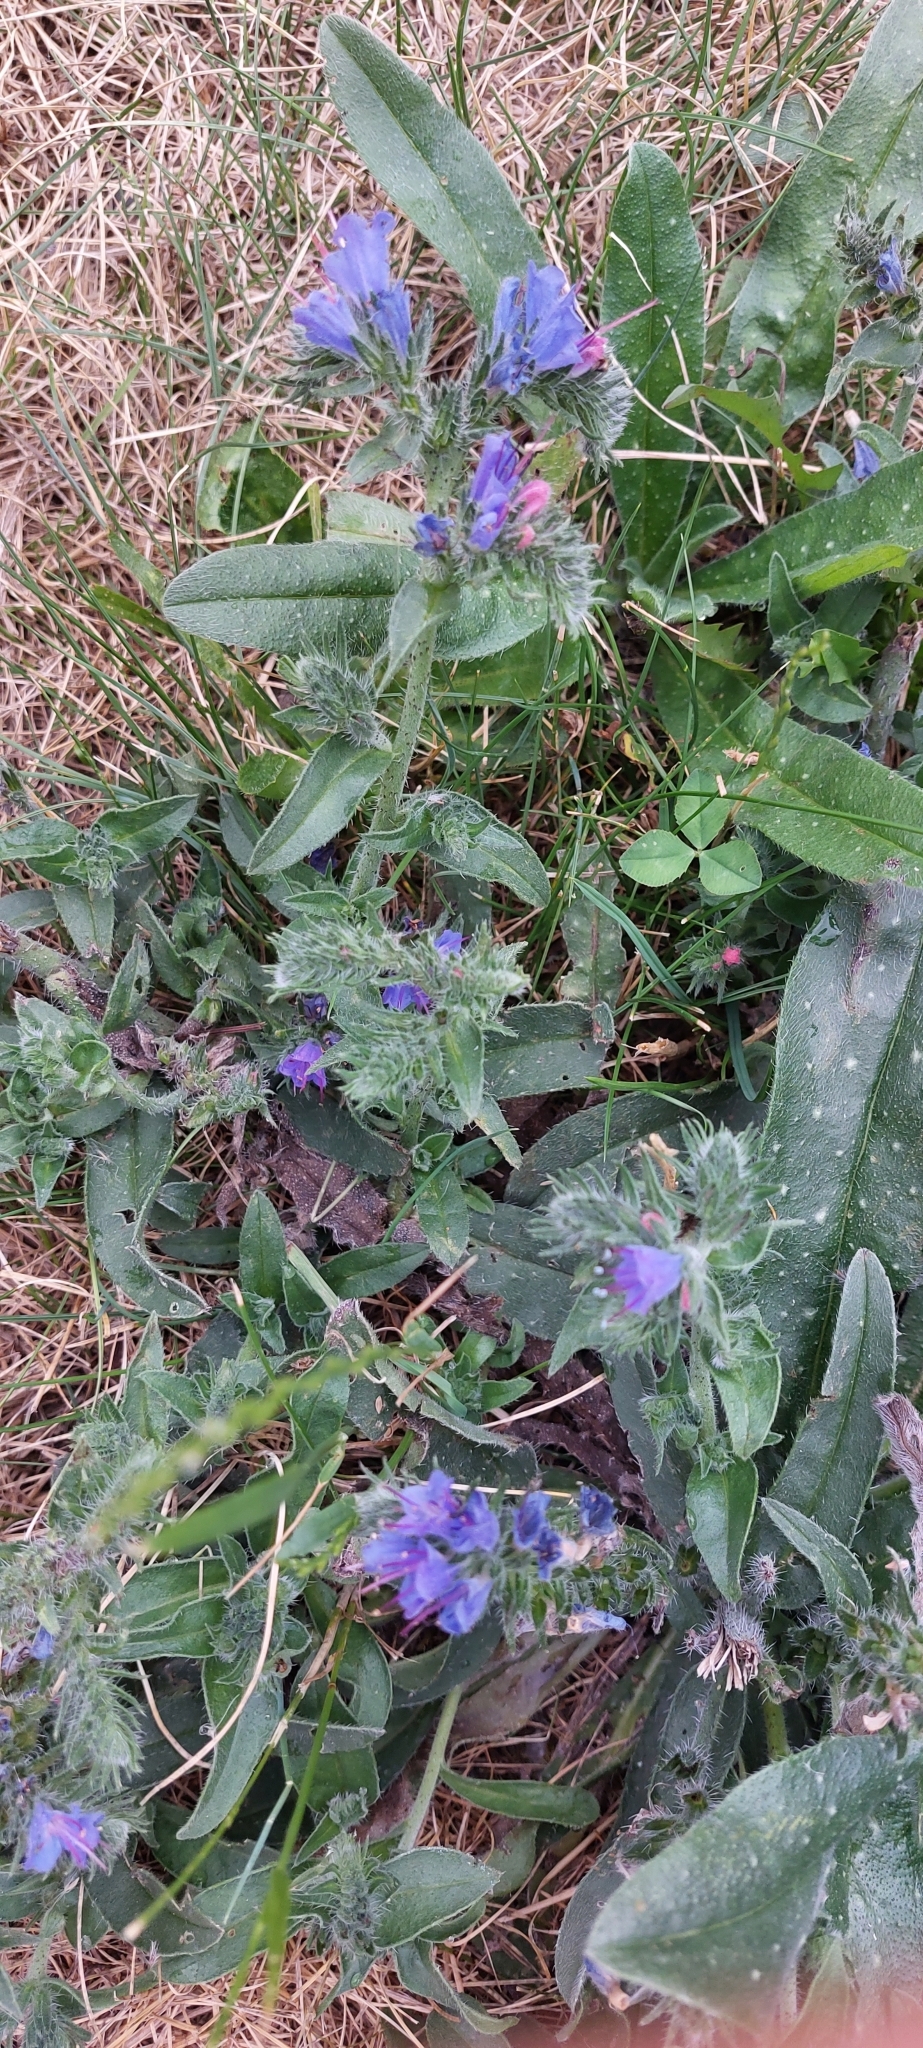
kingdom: Plantae
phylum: Tracheophyta
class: Magnoliopsida
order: Boraginales
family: Boraginaceae
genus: Echium
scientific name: Echium vulgare
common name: Common viper's bugloss
